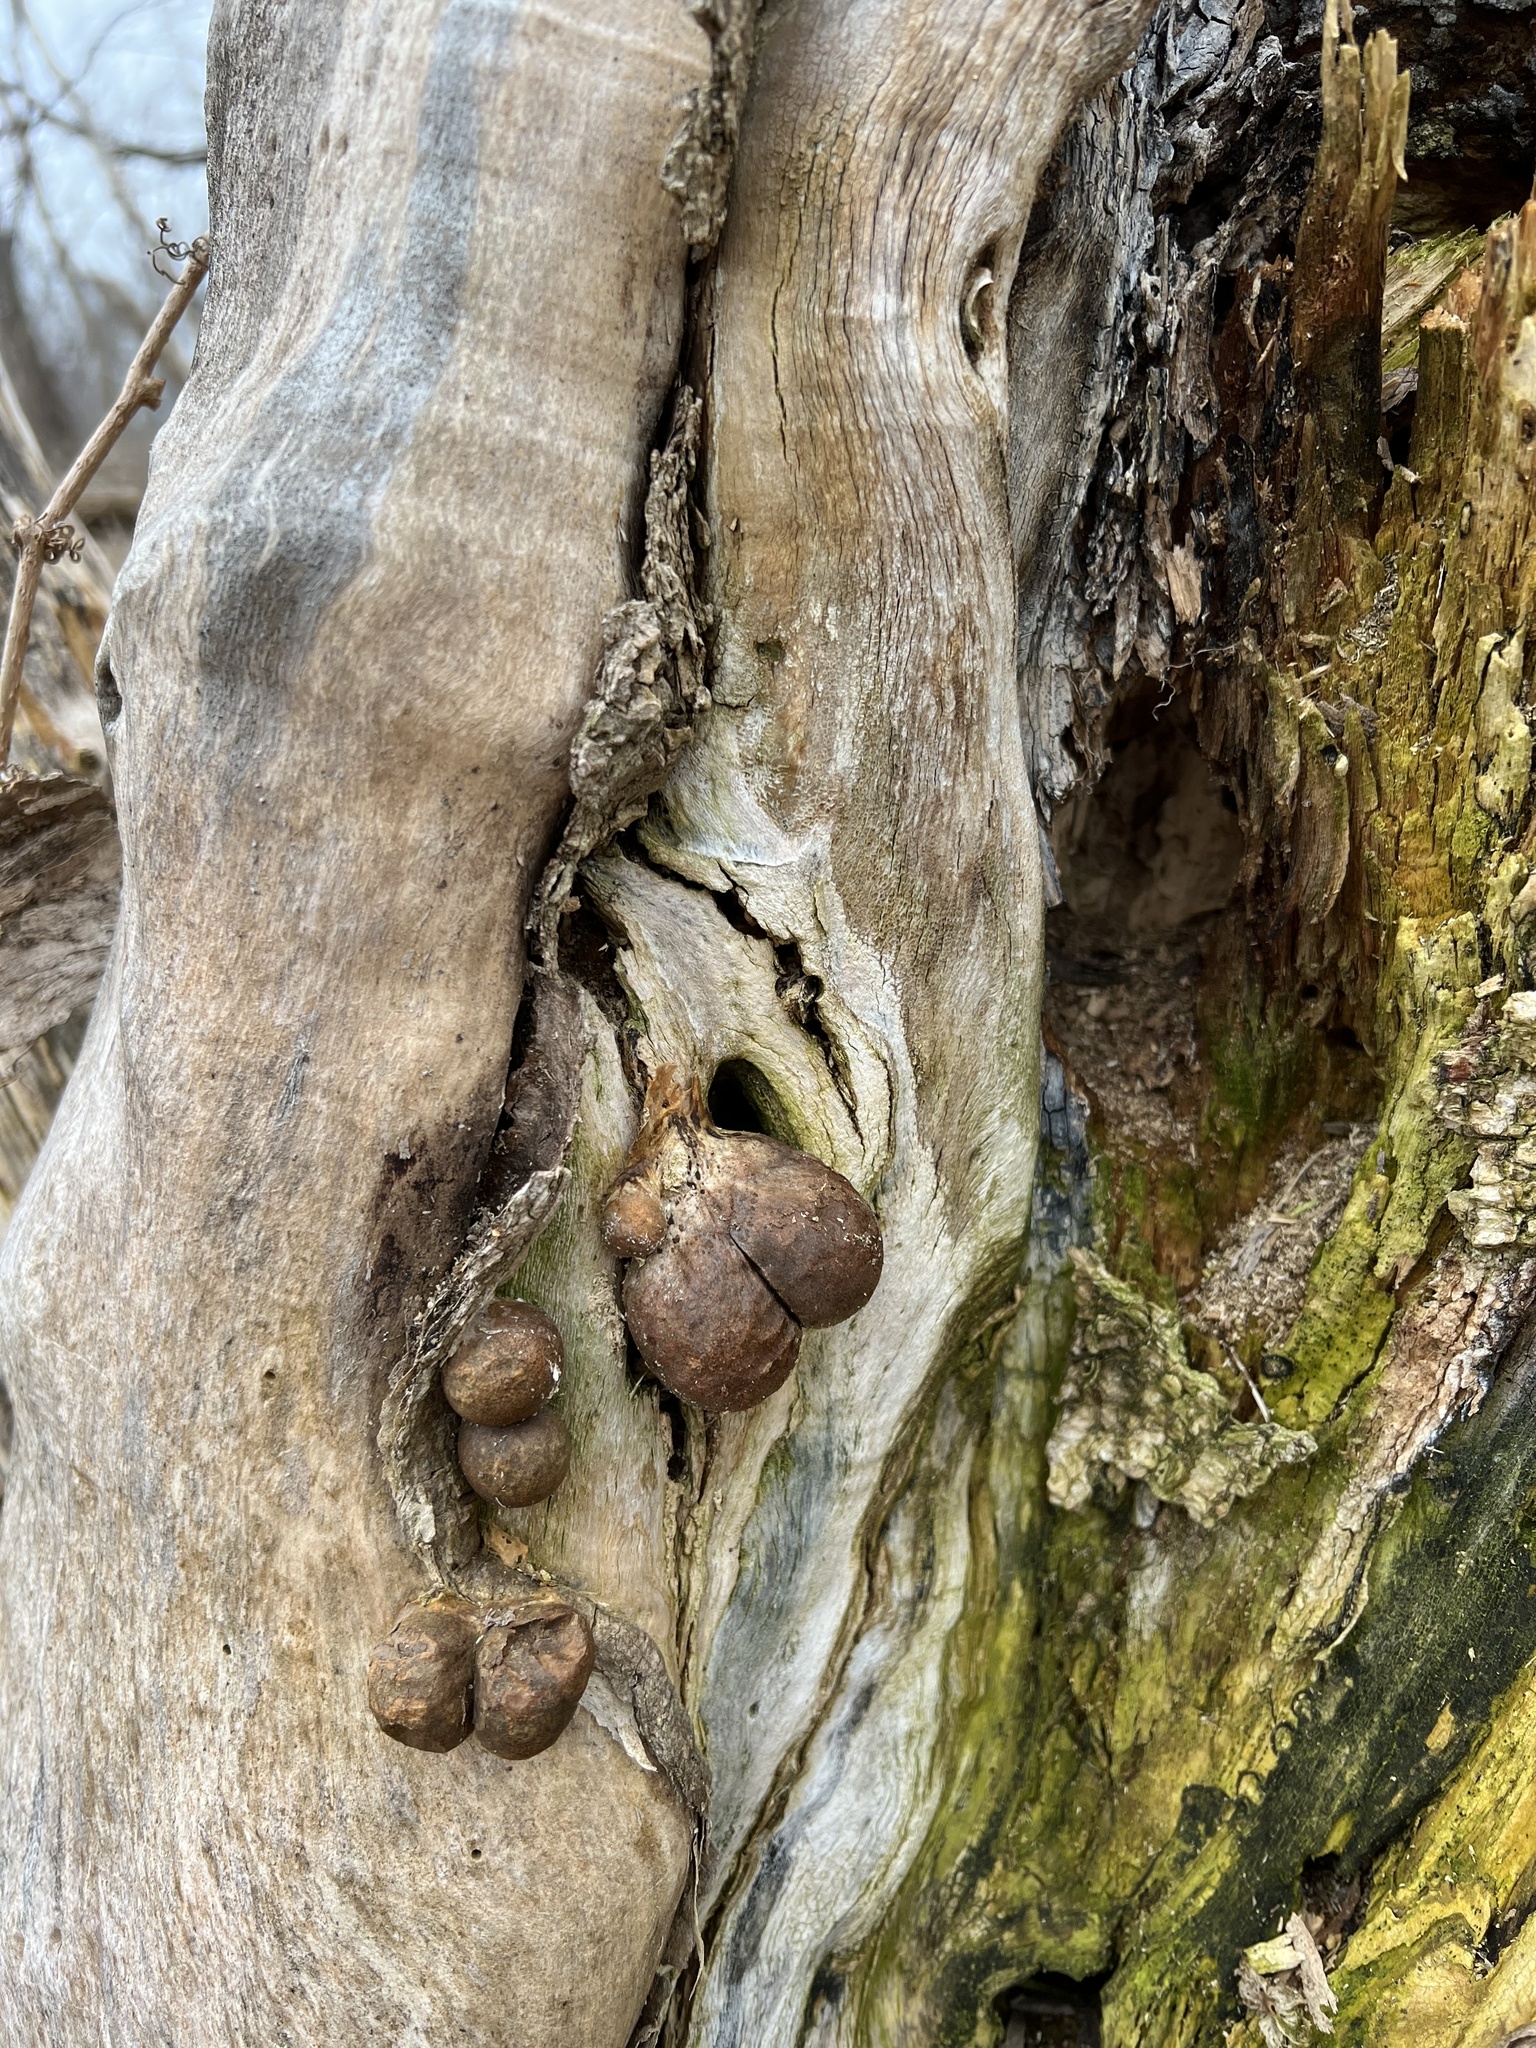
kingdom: Protozoa
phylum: Mycetozoa
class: Myxomycetes
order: Cribrariales
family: Tubiferaceae
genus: Lycogala
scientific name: Lycogala flavofuscum
